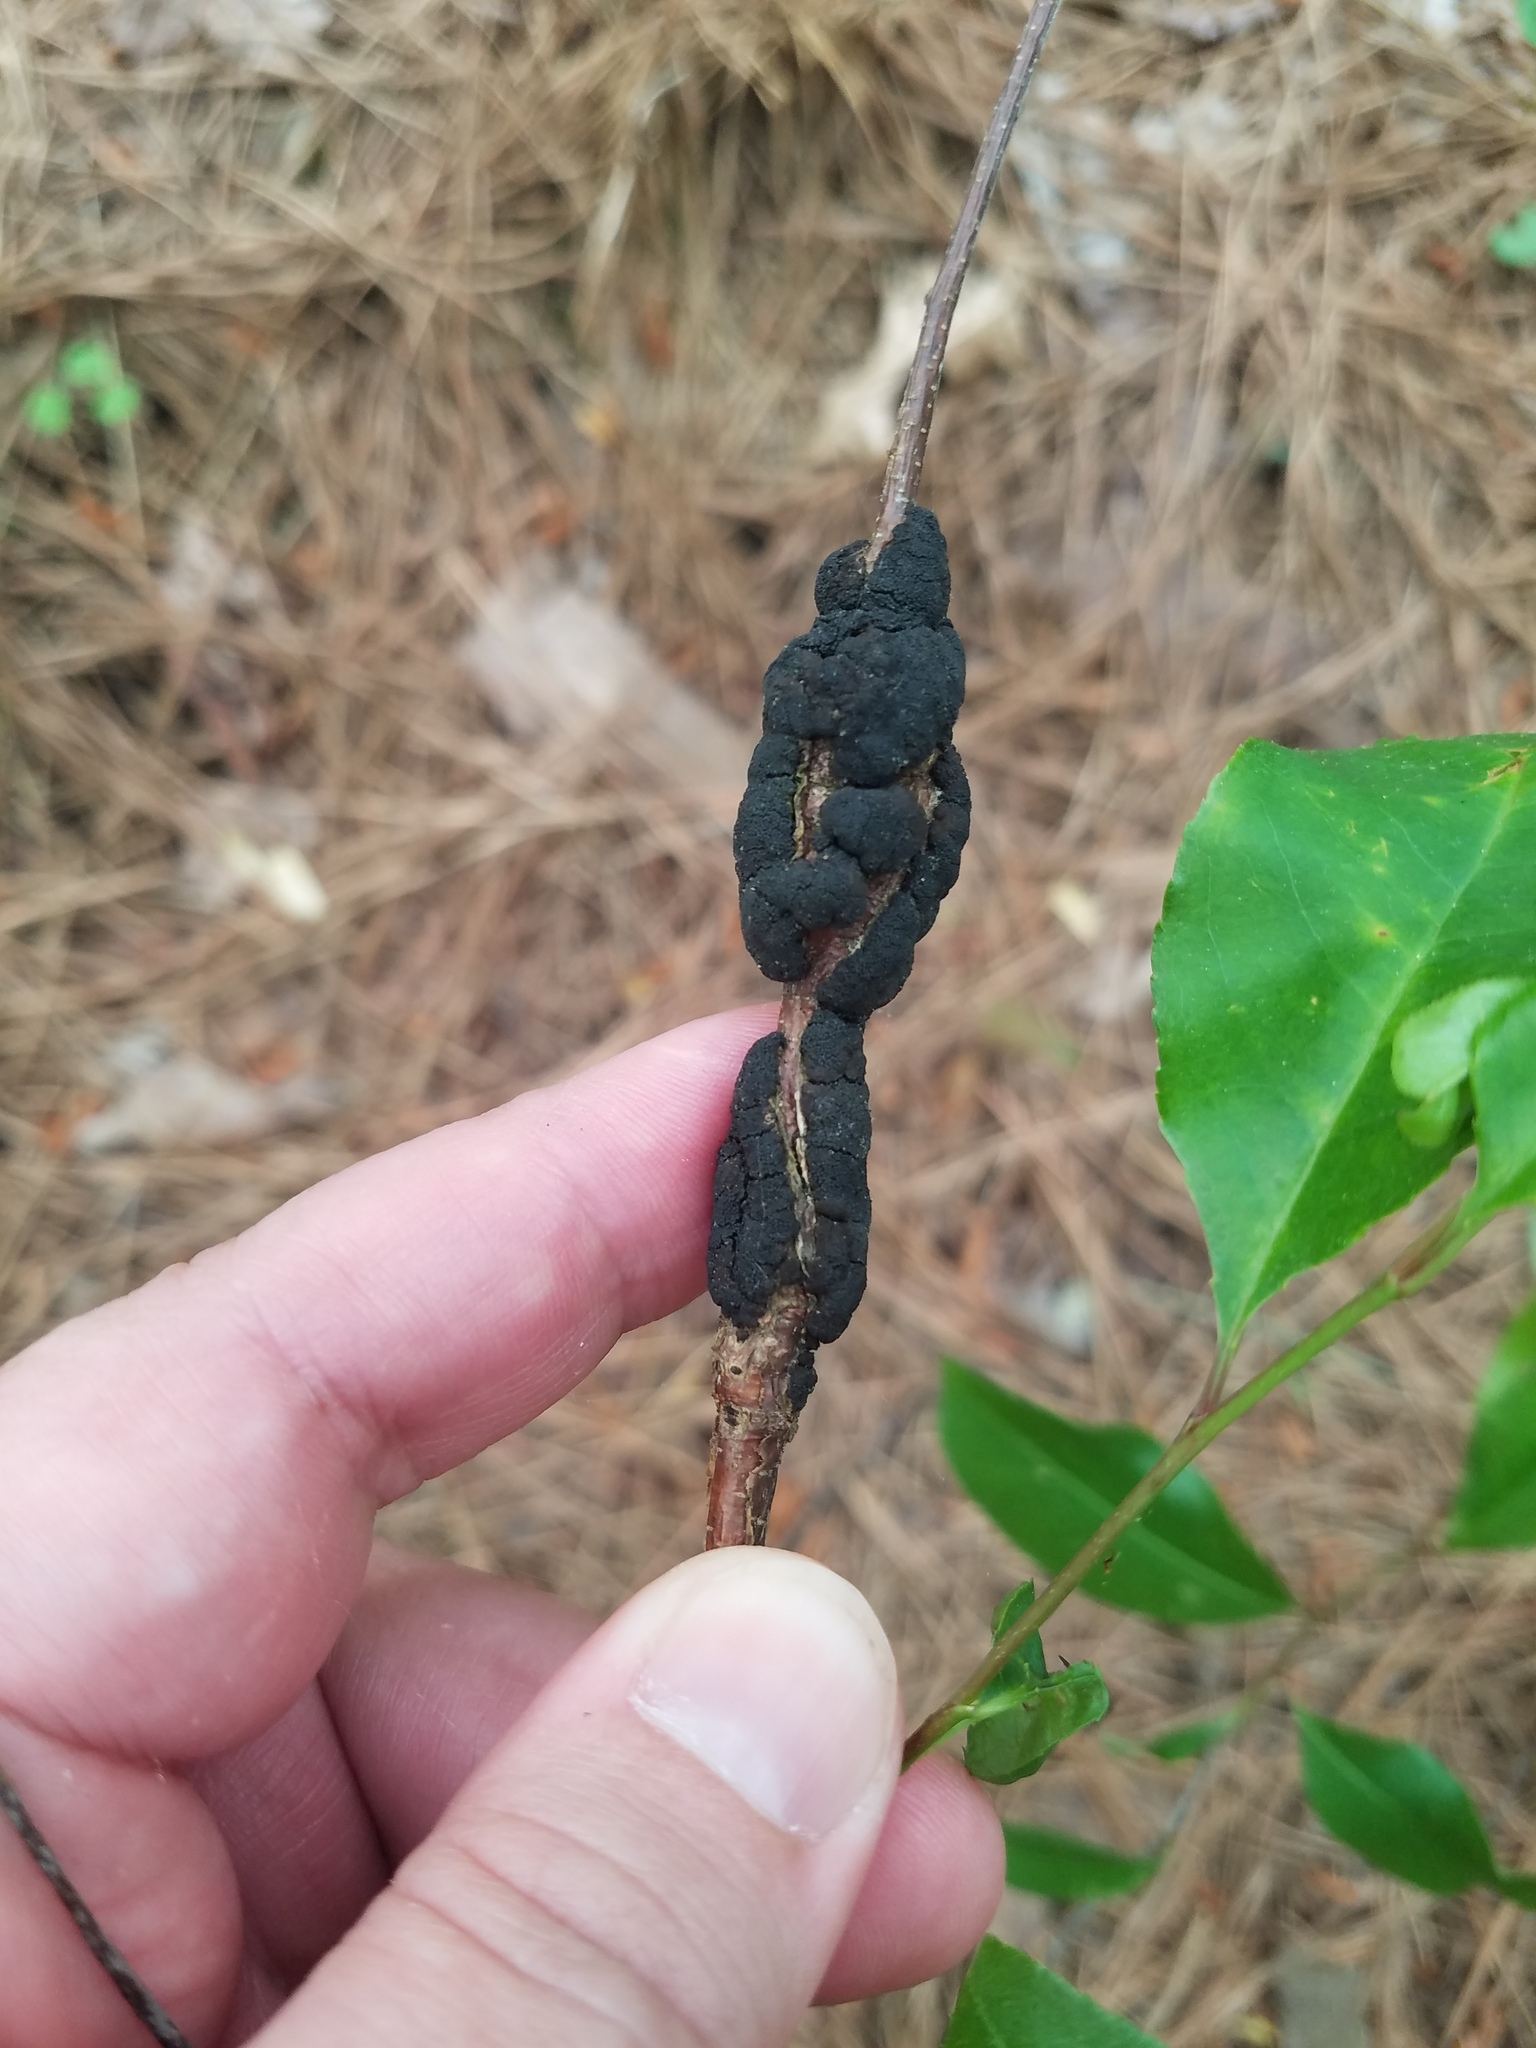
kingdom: Fungi
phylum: Ascomycota
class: Dothideomycetes
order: Venturiales
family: Venturiaceae
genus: Apiosporina
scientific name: Apiosporina morbosa
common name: Black knot
